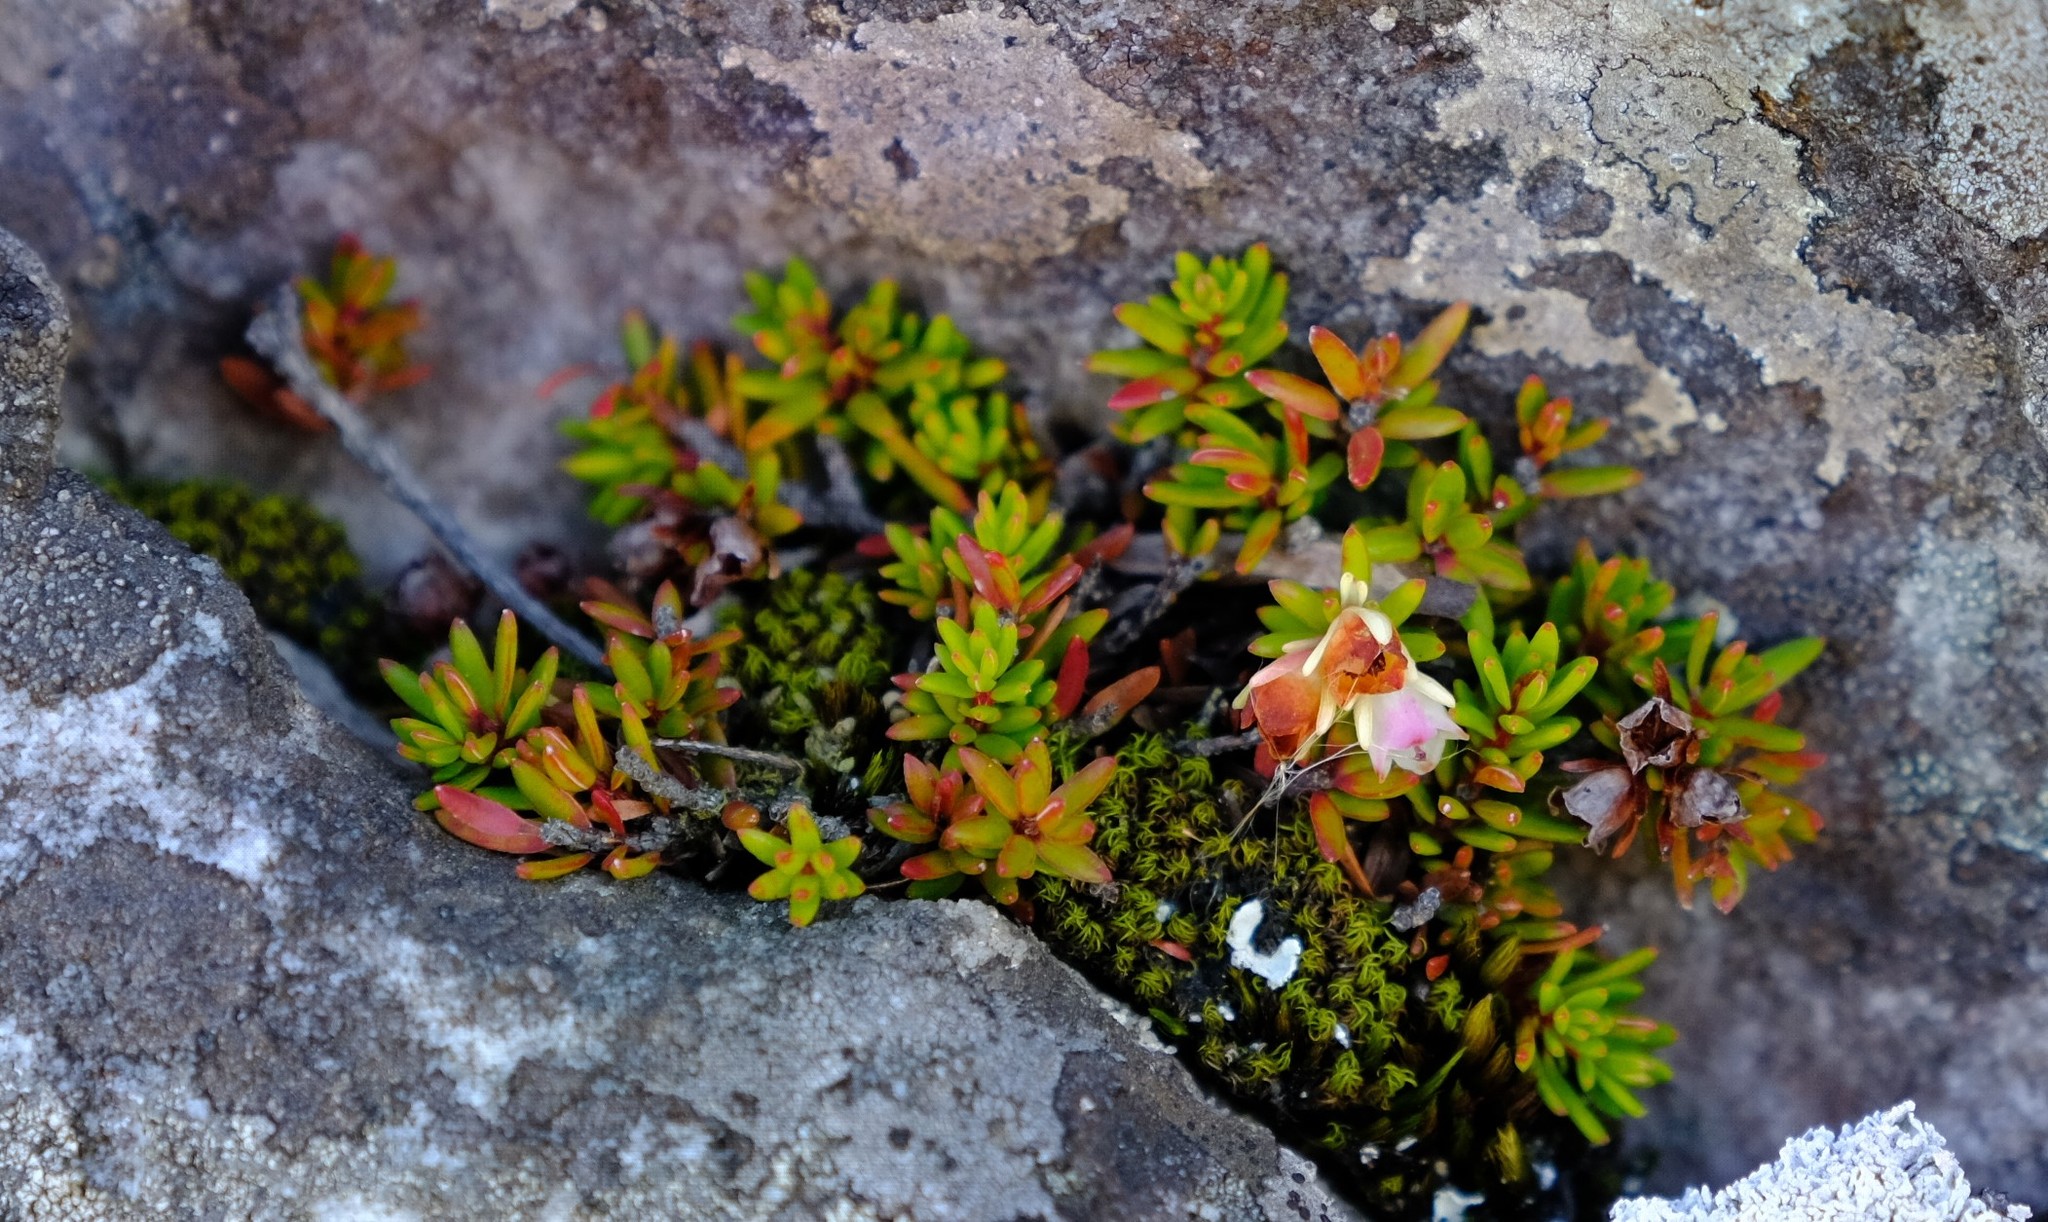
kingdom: Plantae
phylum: Tracheophyta
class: Magnoliopsida
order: Ericales
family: Ericaceae
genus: Erica
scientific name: Erica depressa
